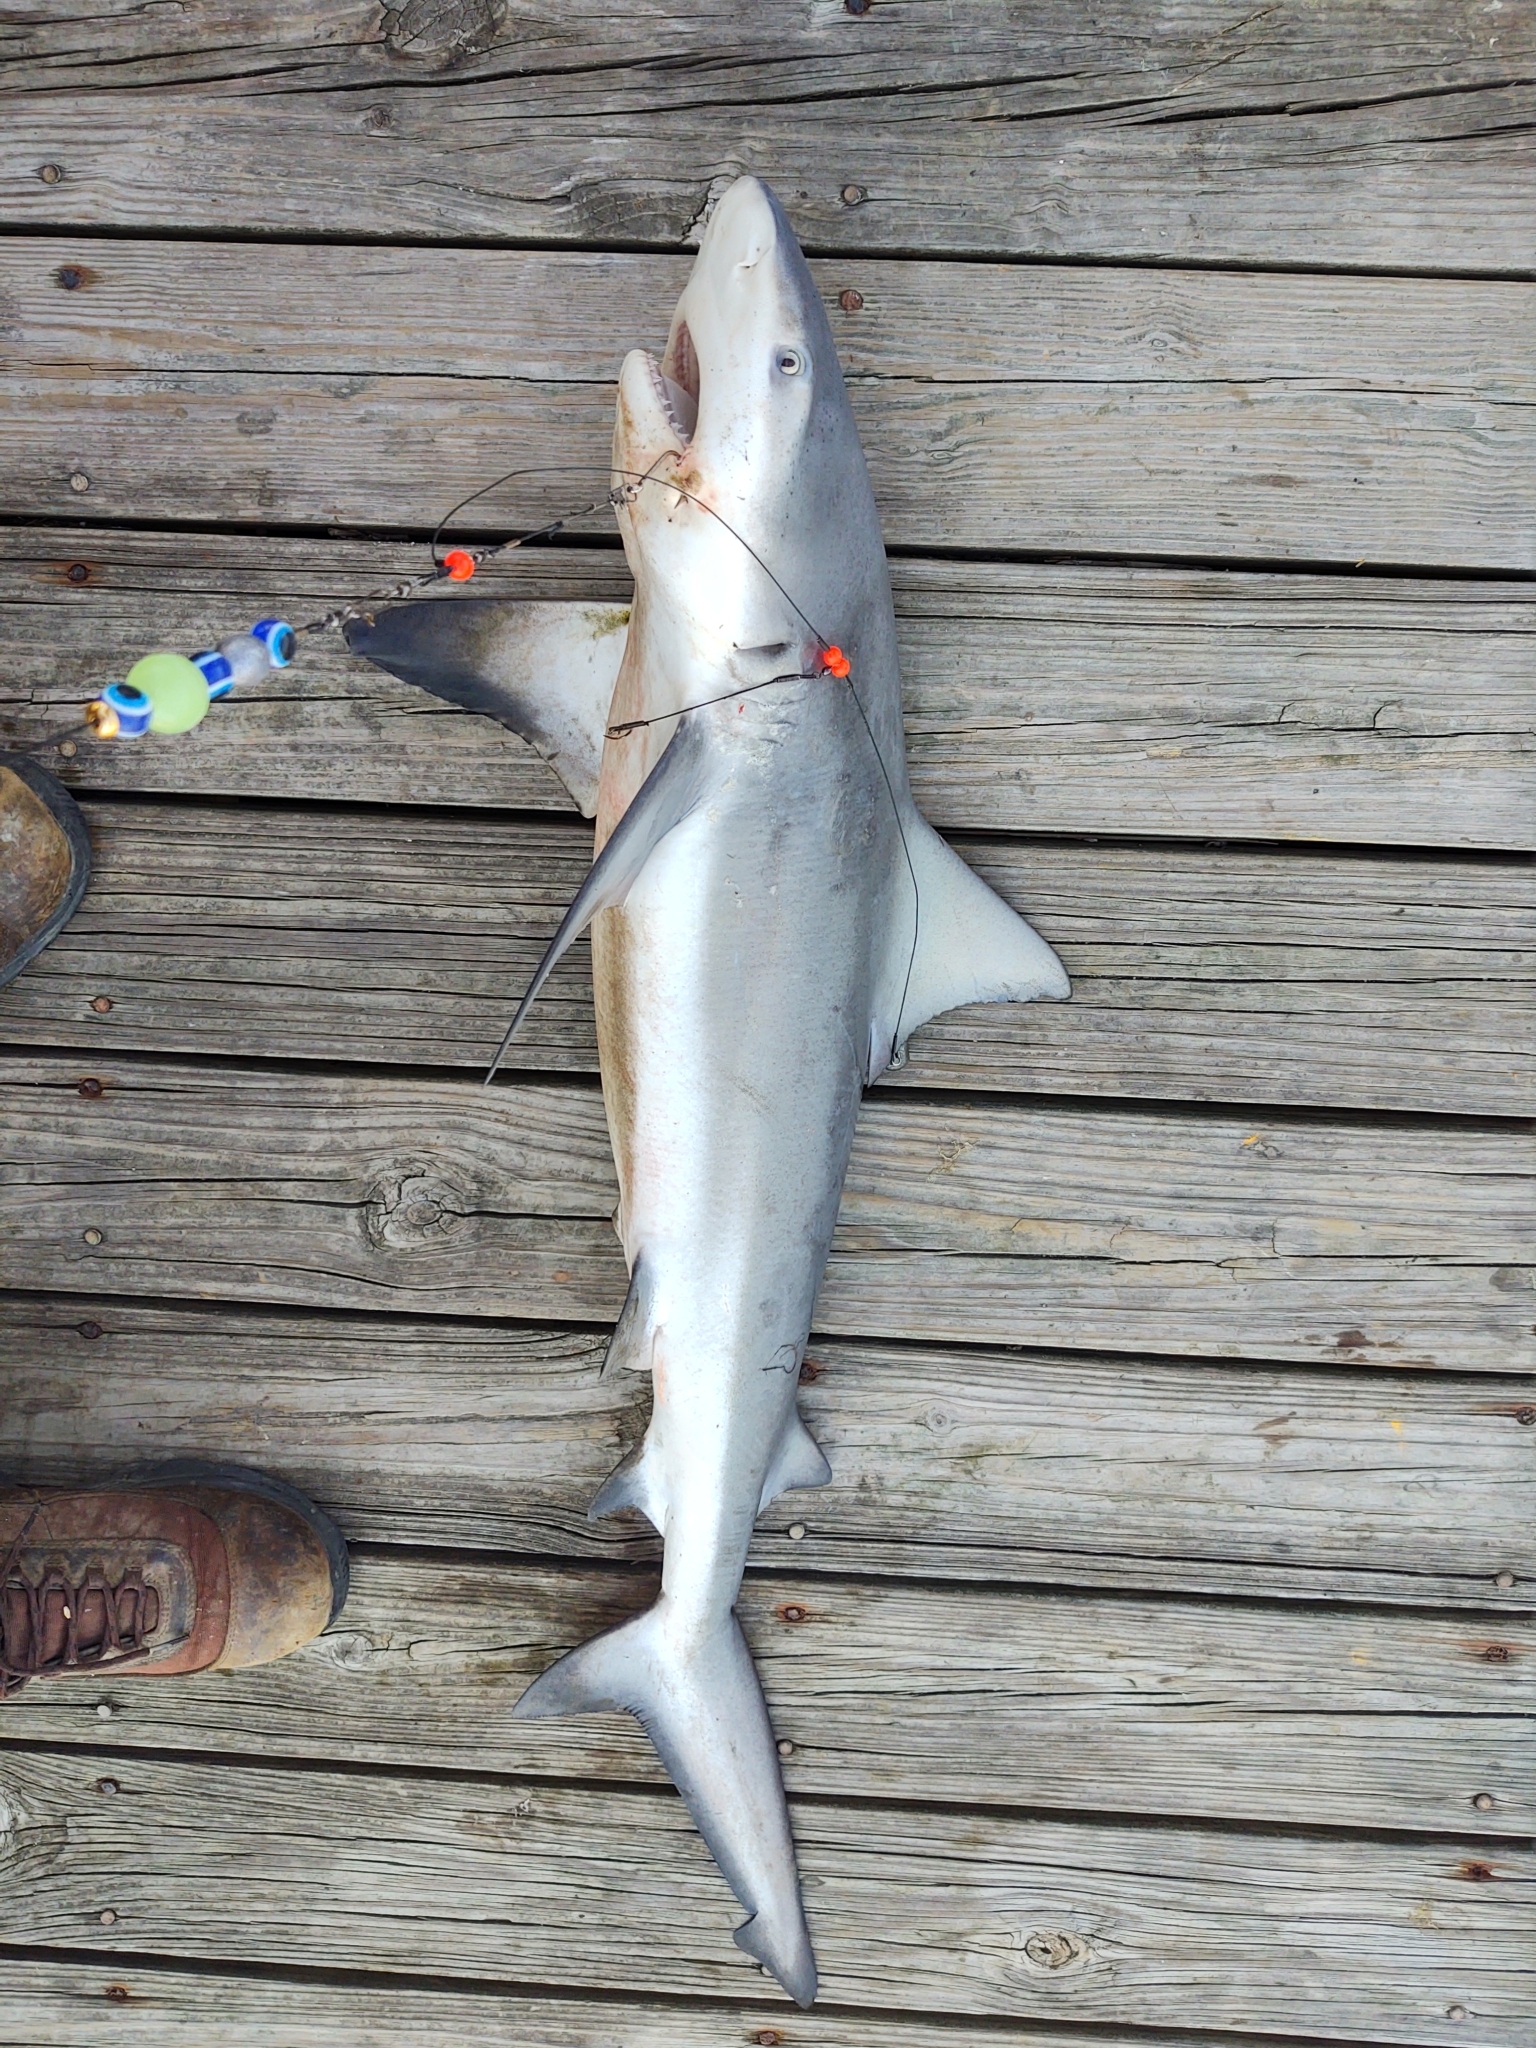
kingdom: Animalia
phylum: Chordata
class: Elasmobranchii
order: Carcharhiniformes
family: Carcharhinidae
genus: Carcharhinus
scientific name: Carcharhinus leucas
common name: Bull shark
